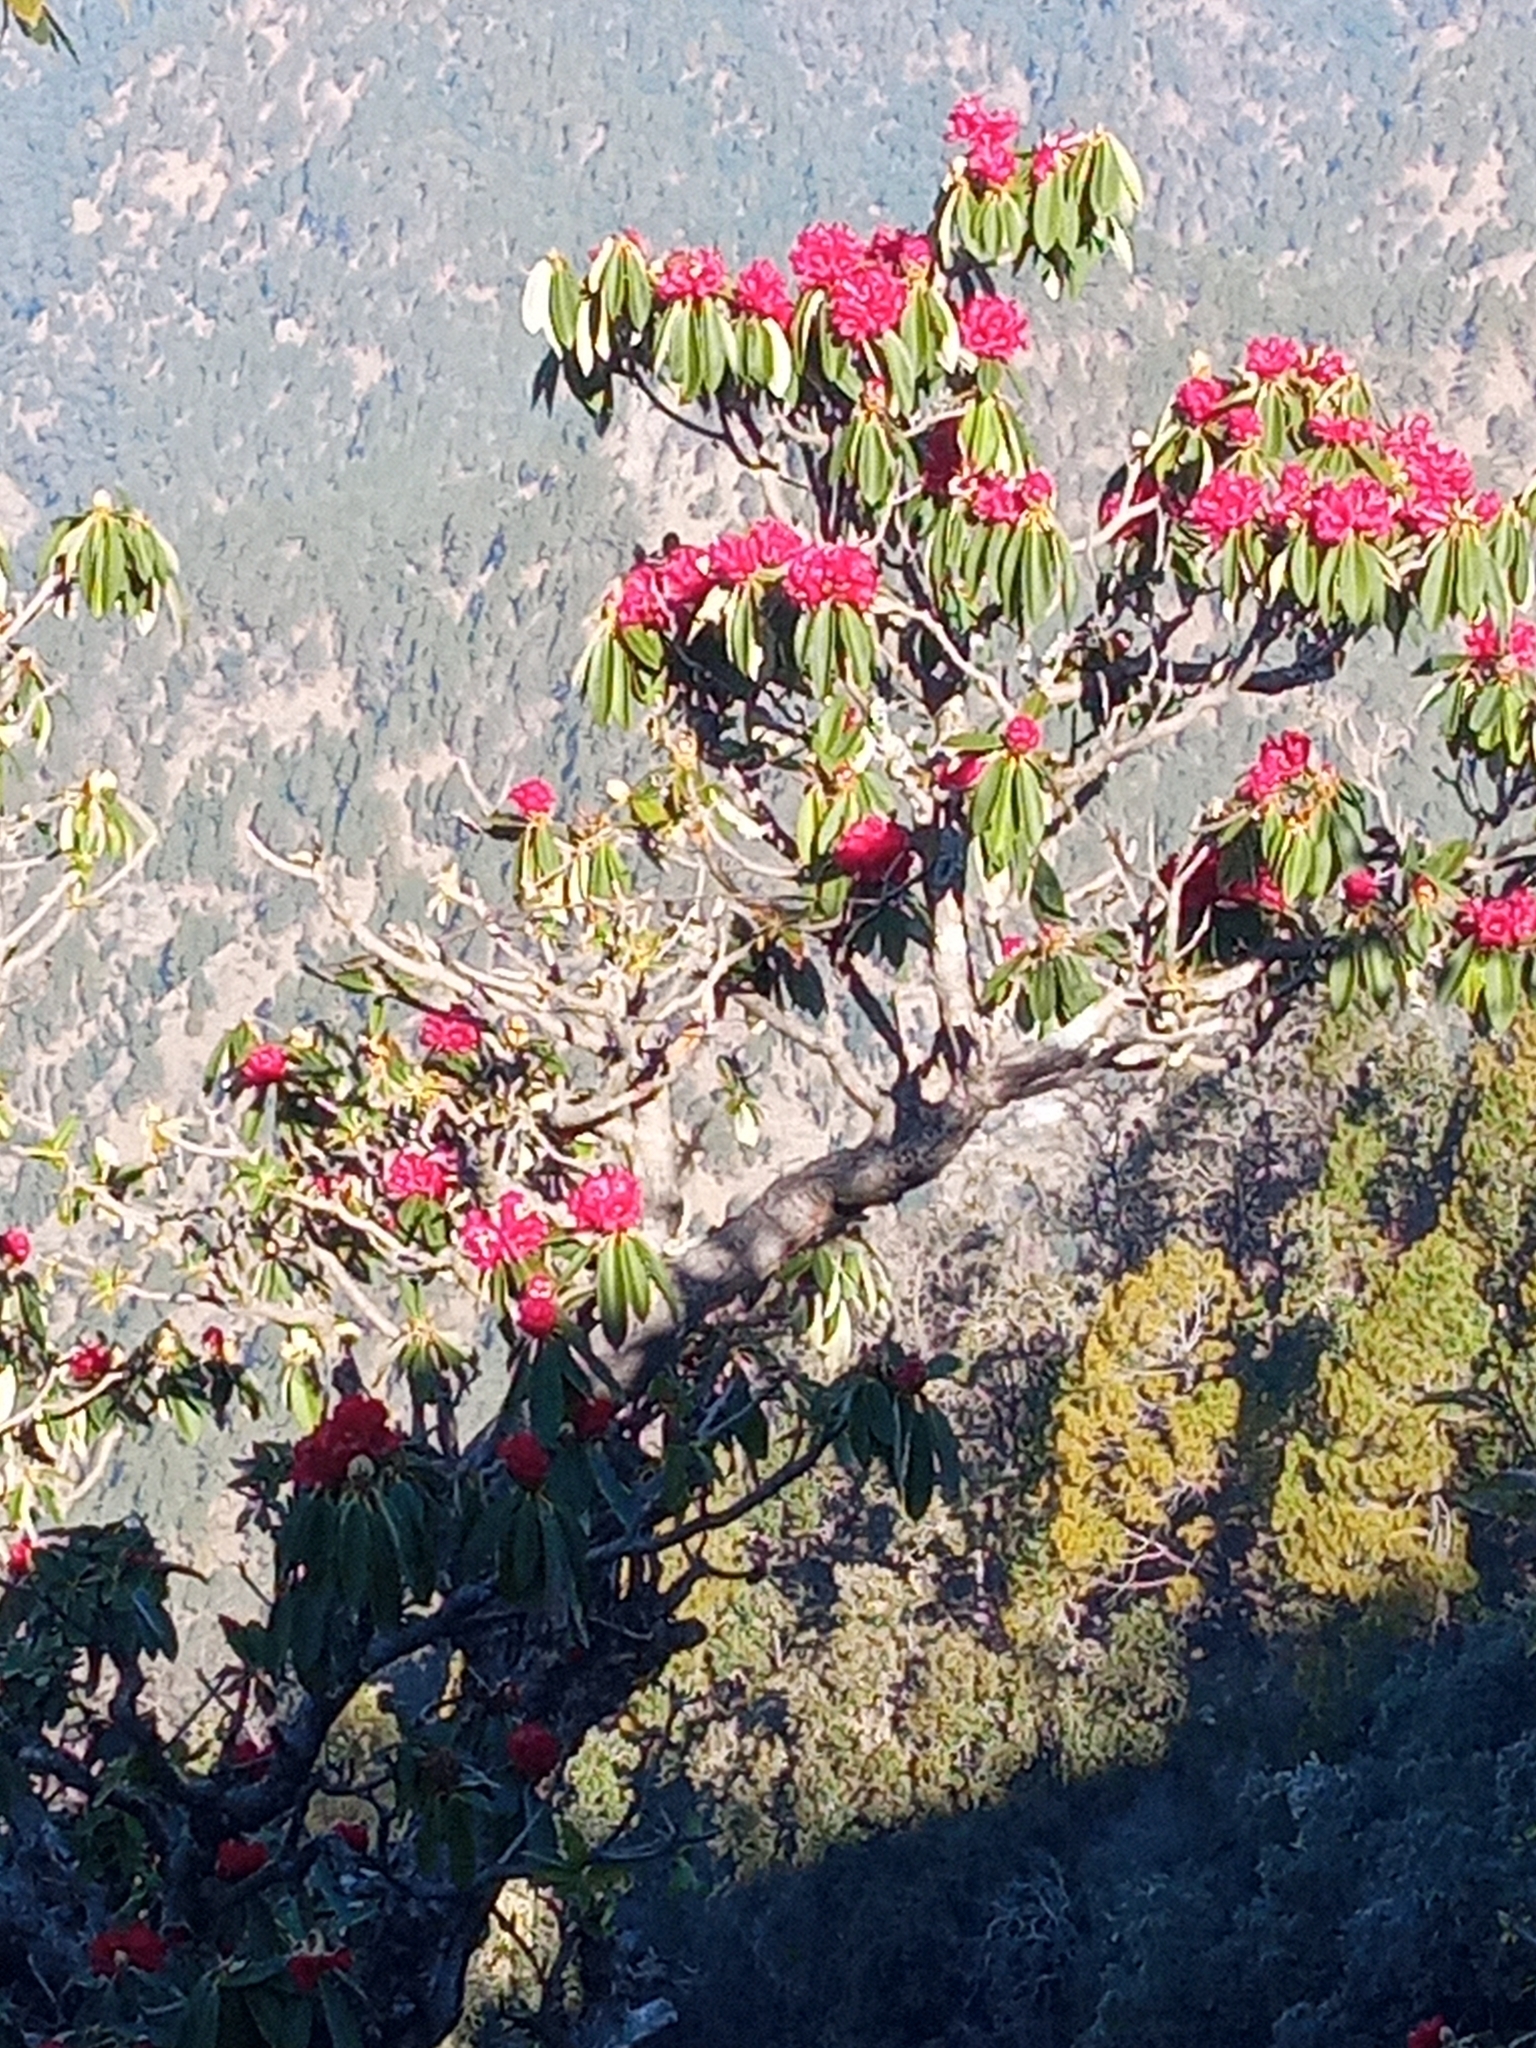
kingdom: Plantae
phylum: Tracheophyta
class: Magnoliopsida
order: Ericales
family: Ericaceae
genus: Rhododendron
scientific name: Rhododendron arboreum
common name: Tree rhododendron
